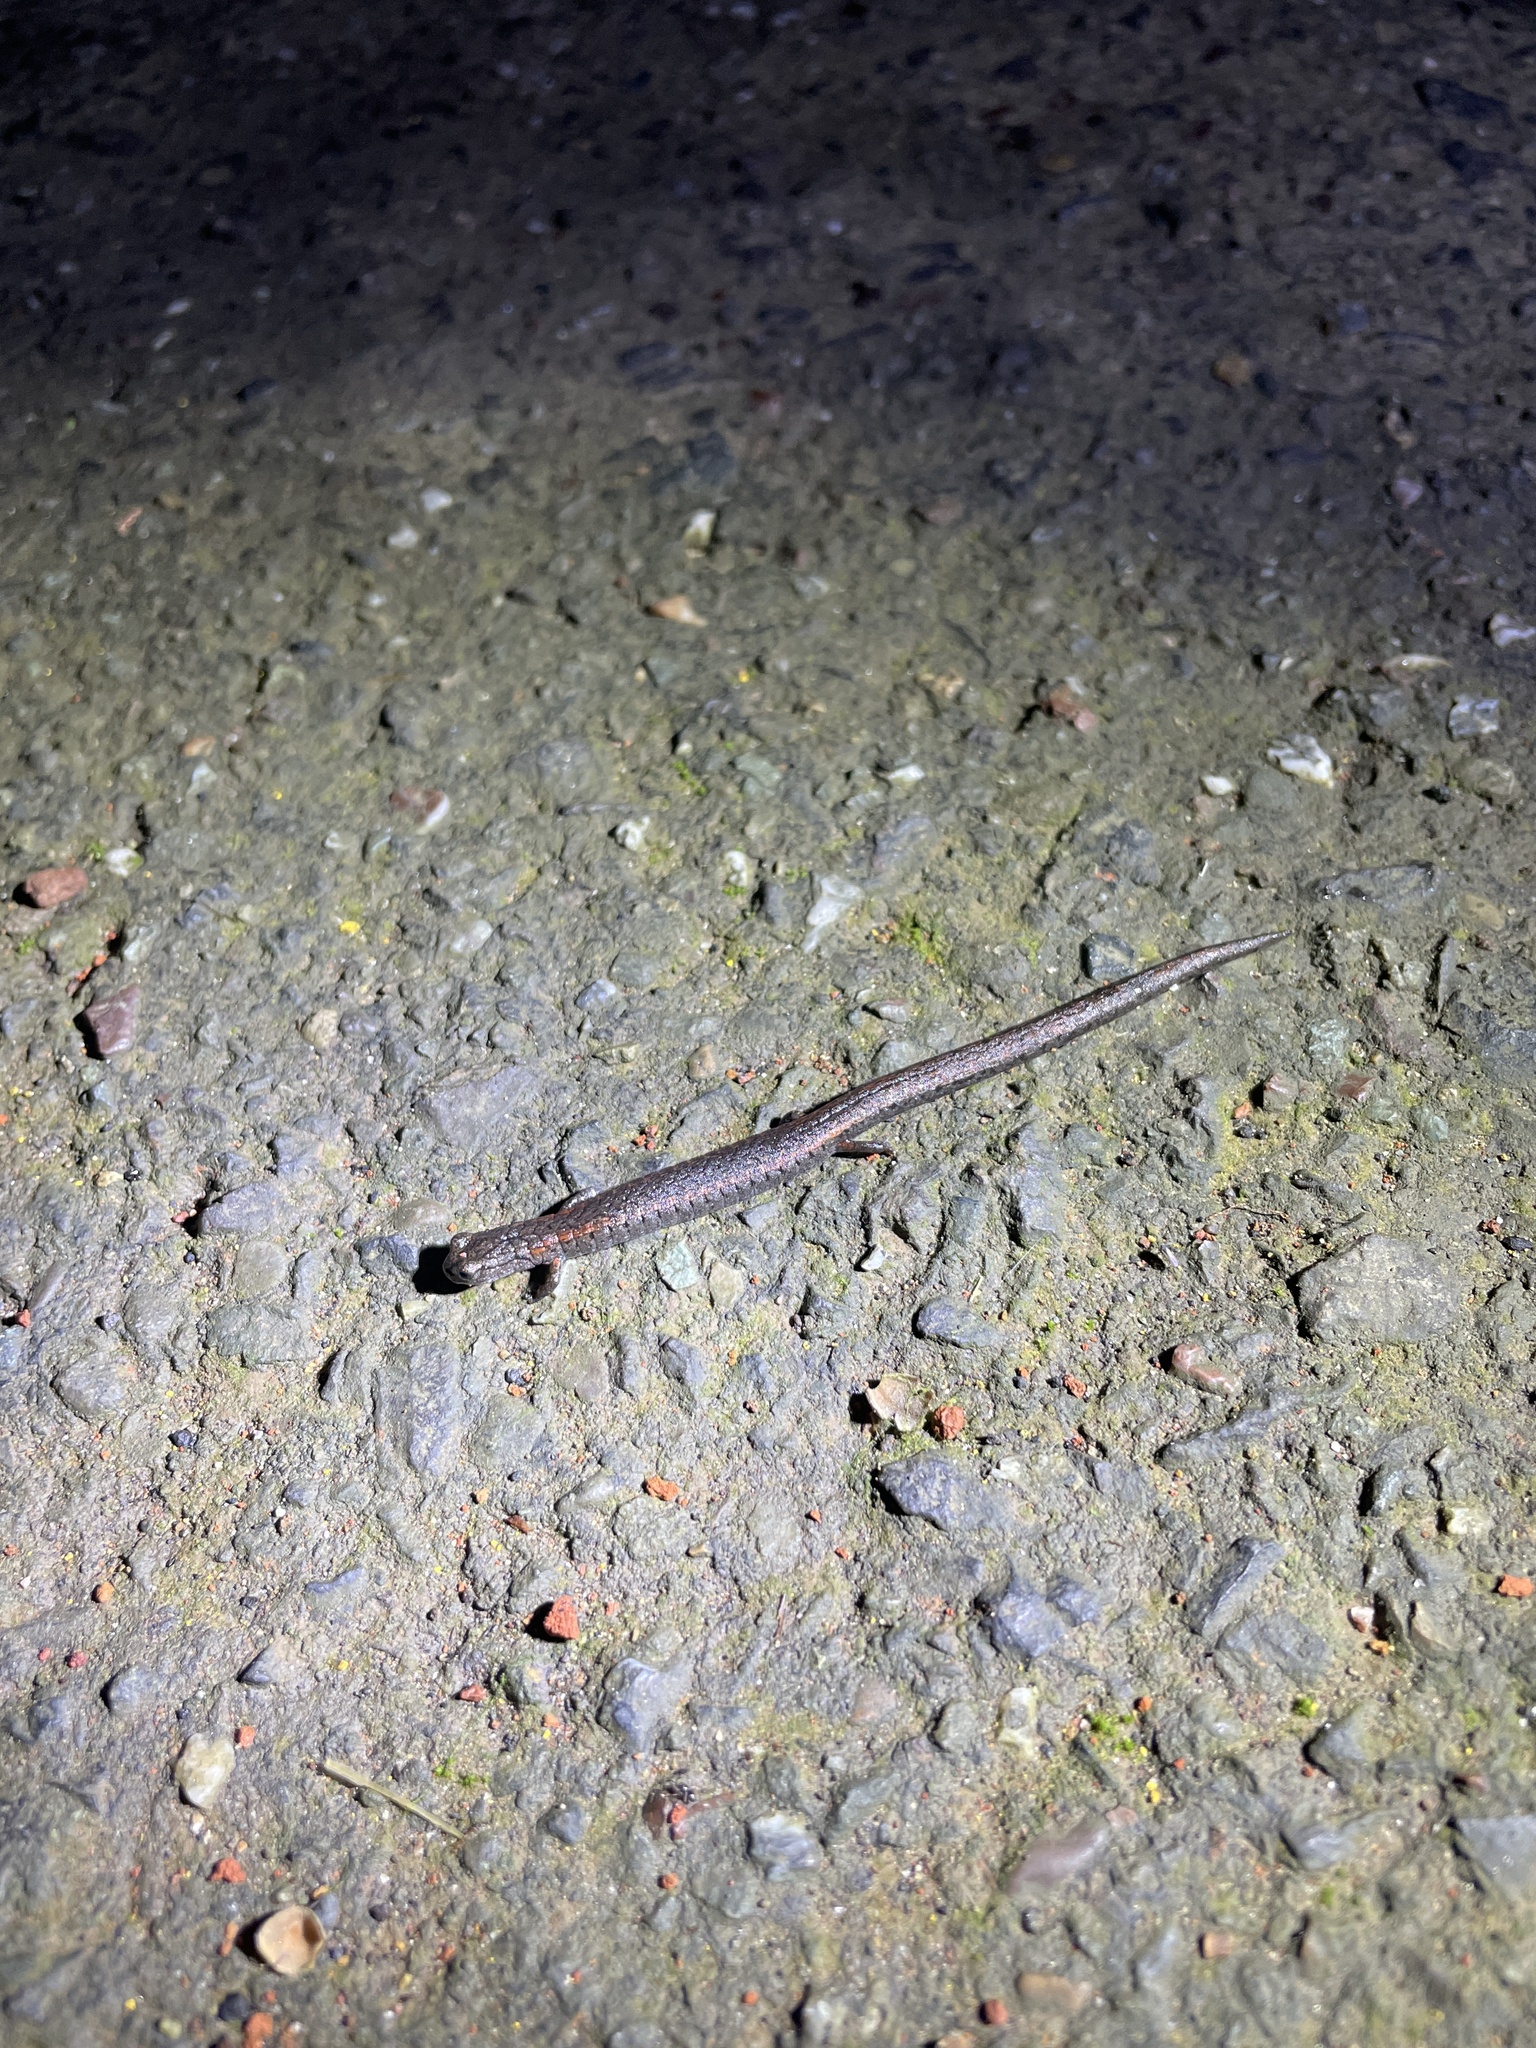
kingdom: Animalia
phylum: Chordata
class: Amphibia
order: Caudata
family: Plethodontidae
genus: Batrachoseps
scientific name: Batrachoseps attenuatus
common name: California slender salamander
